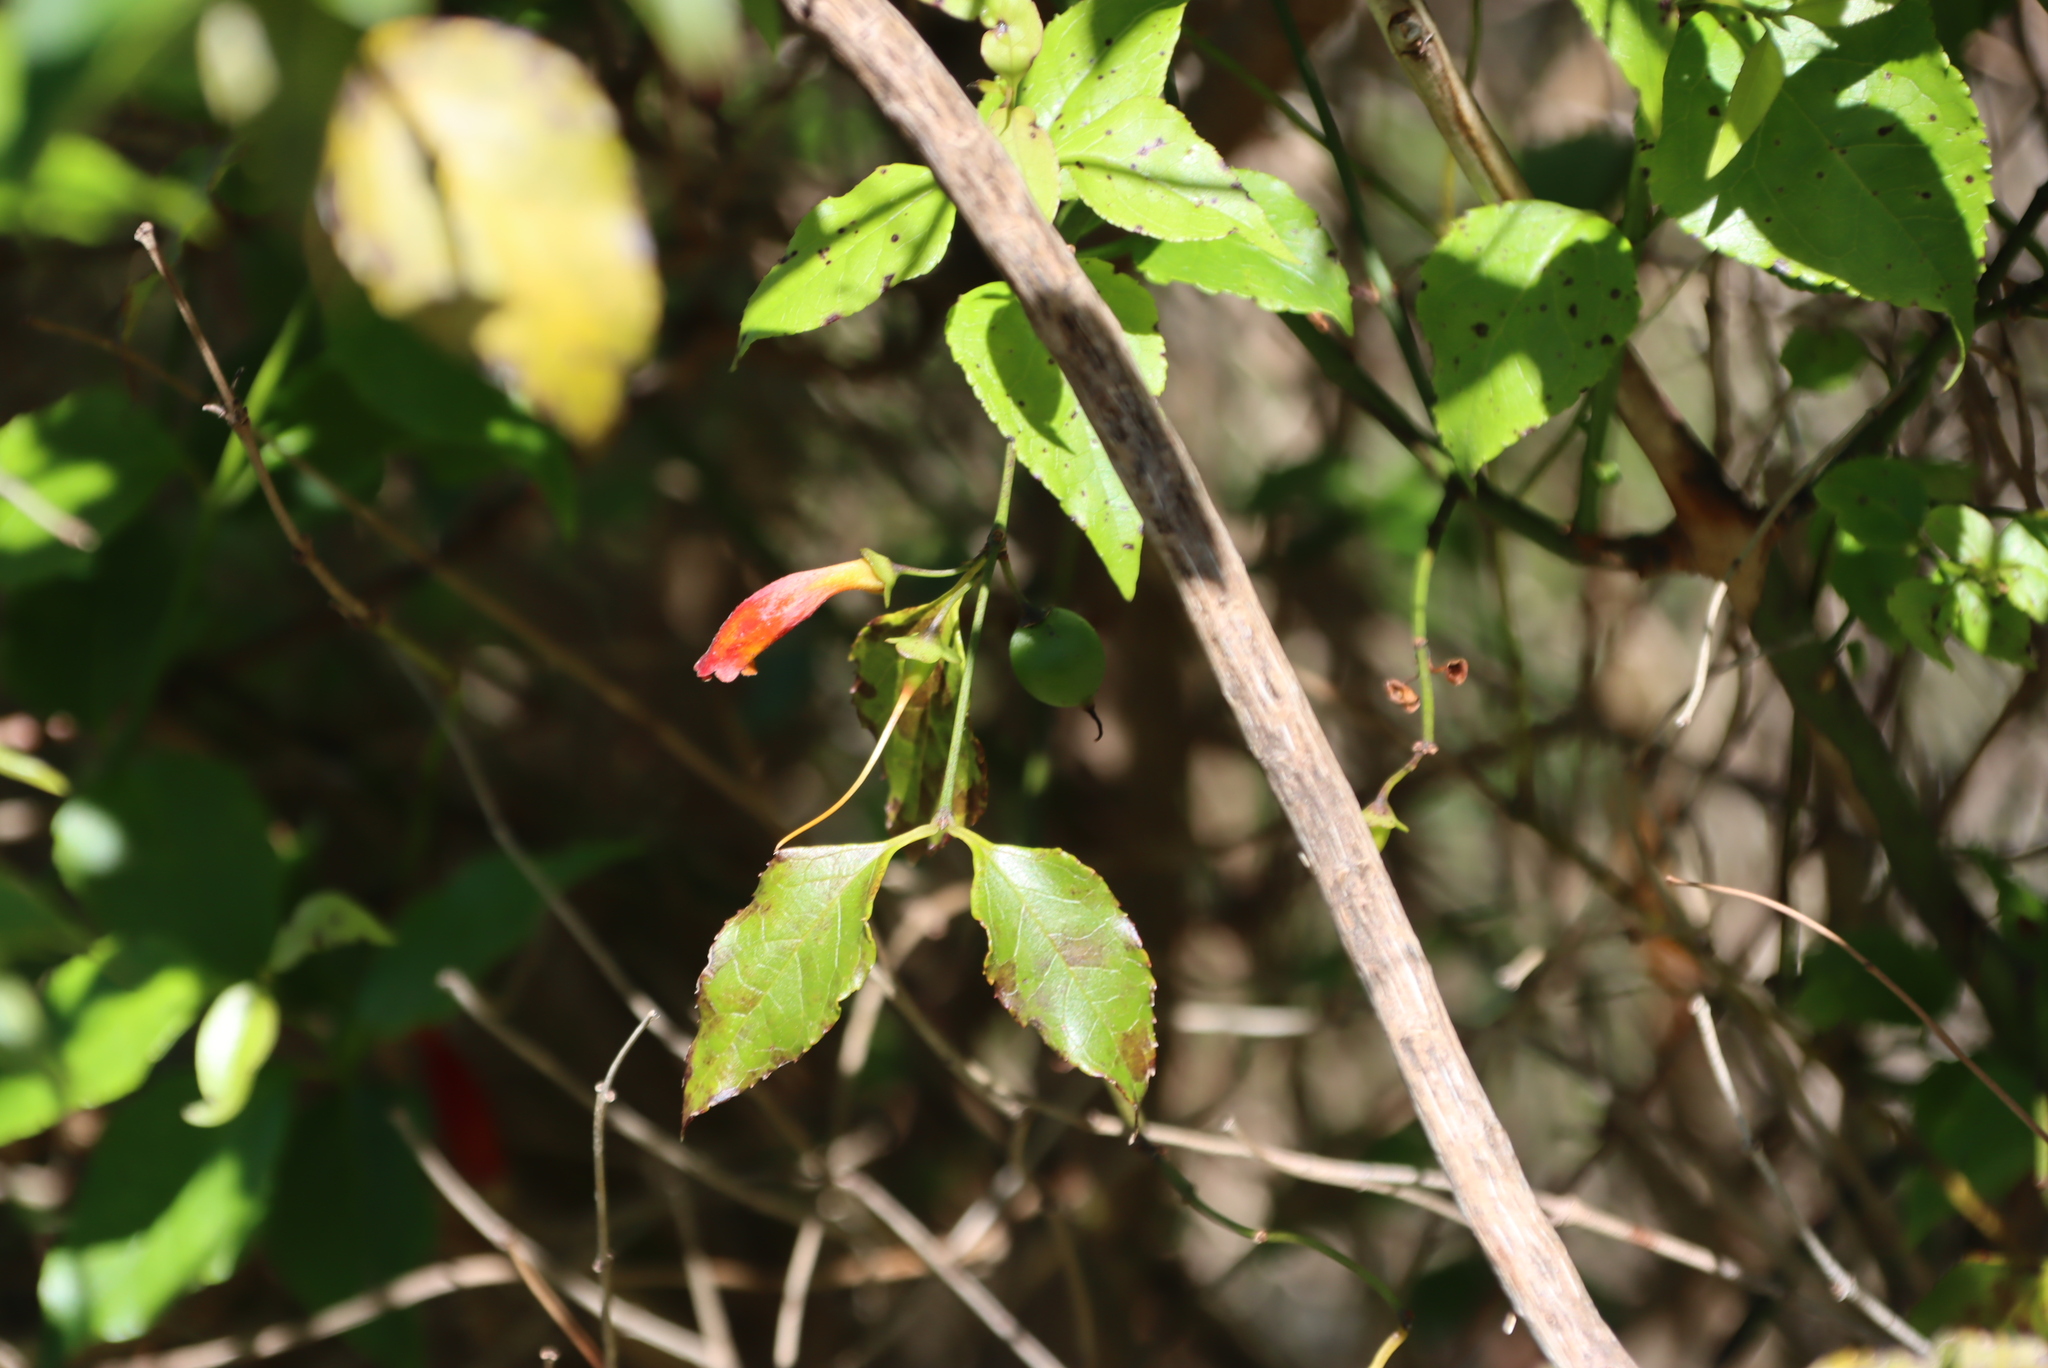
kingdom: Plantae
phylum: Tracheophyta
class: Magnoliopsida
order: Lamiales
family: Stilbaceae
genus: Halleria
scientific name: Halleria lucida
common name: Tree fuschia
